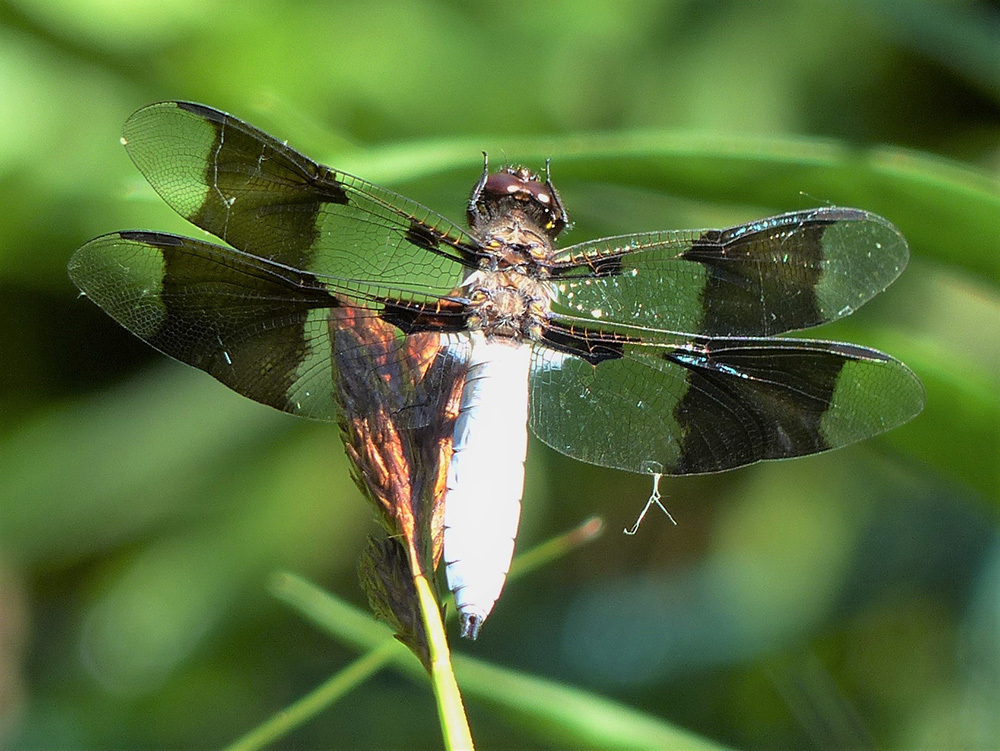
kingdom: Animalia
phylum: Arthropoda
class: Insecta
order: Odonata
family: Libellulidae
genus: Plathemis
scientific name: Plathemis lydia
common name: Common whitetail
